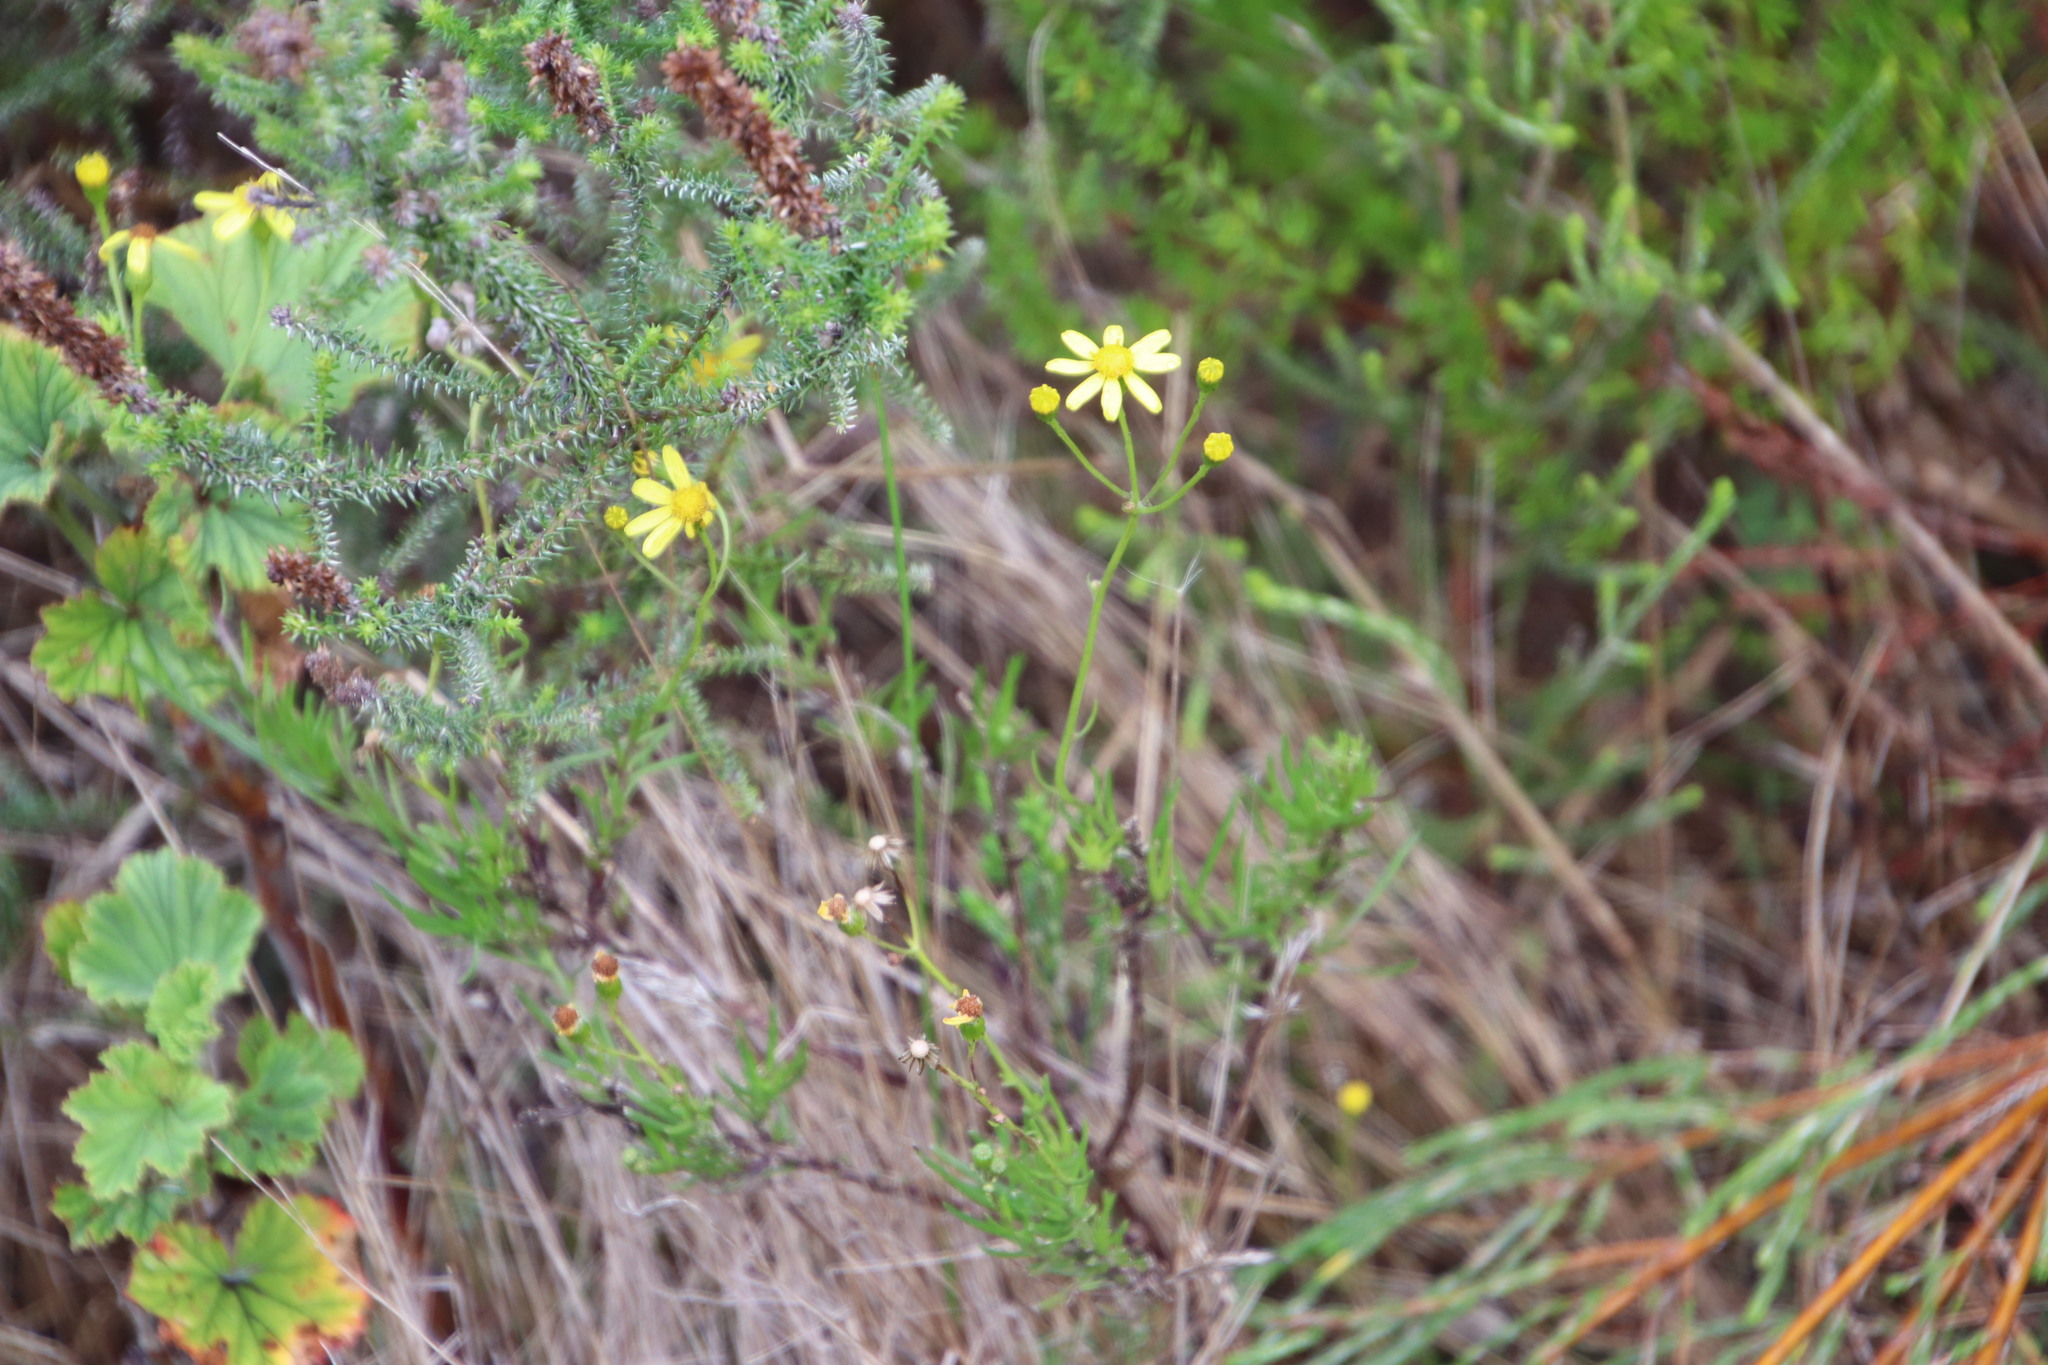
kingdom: Plantae
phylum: Tracheophyta
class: Magnoliopsida
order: Asterales
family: Asteraceae
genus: Senecio
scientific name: Senecio burchellii
